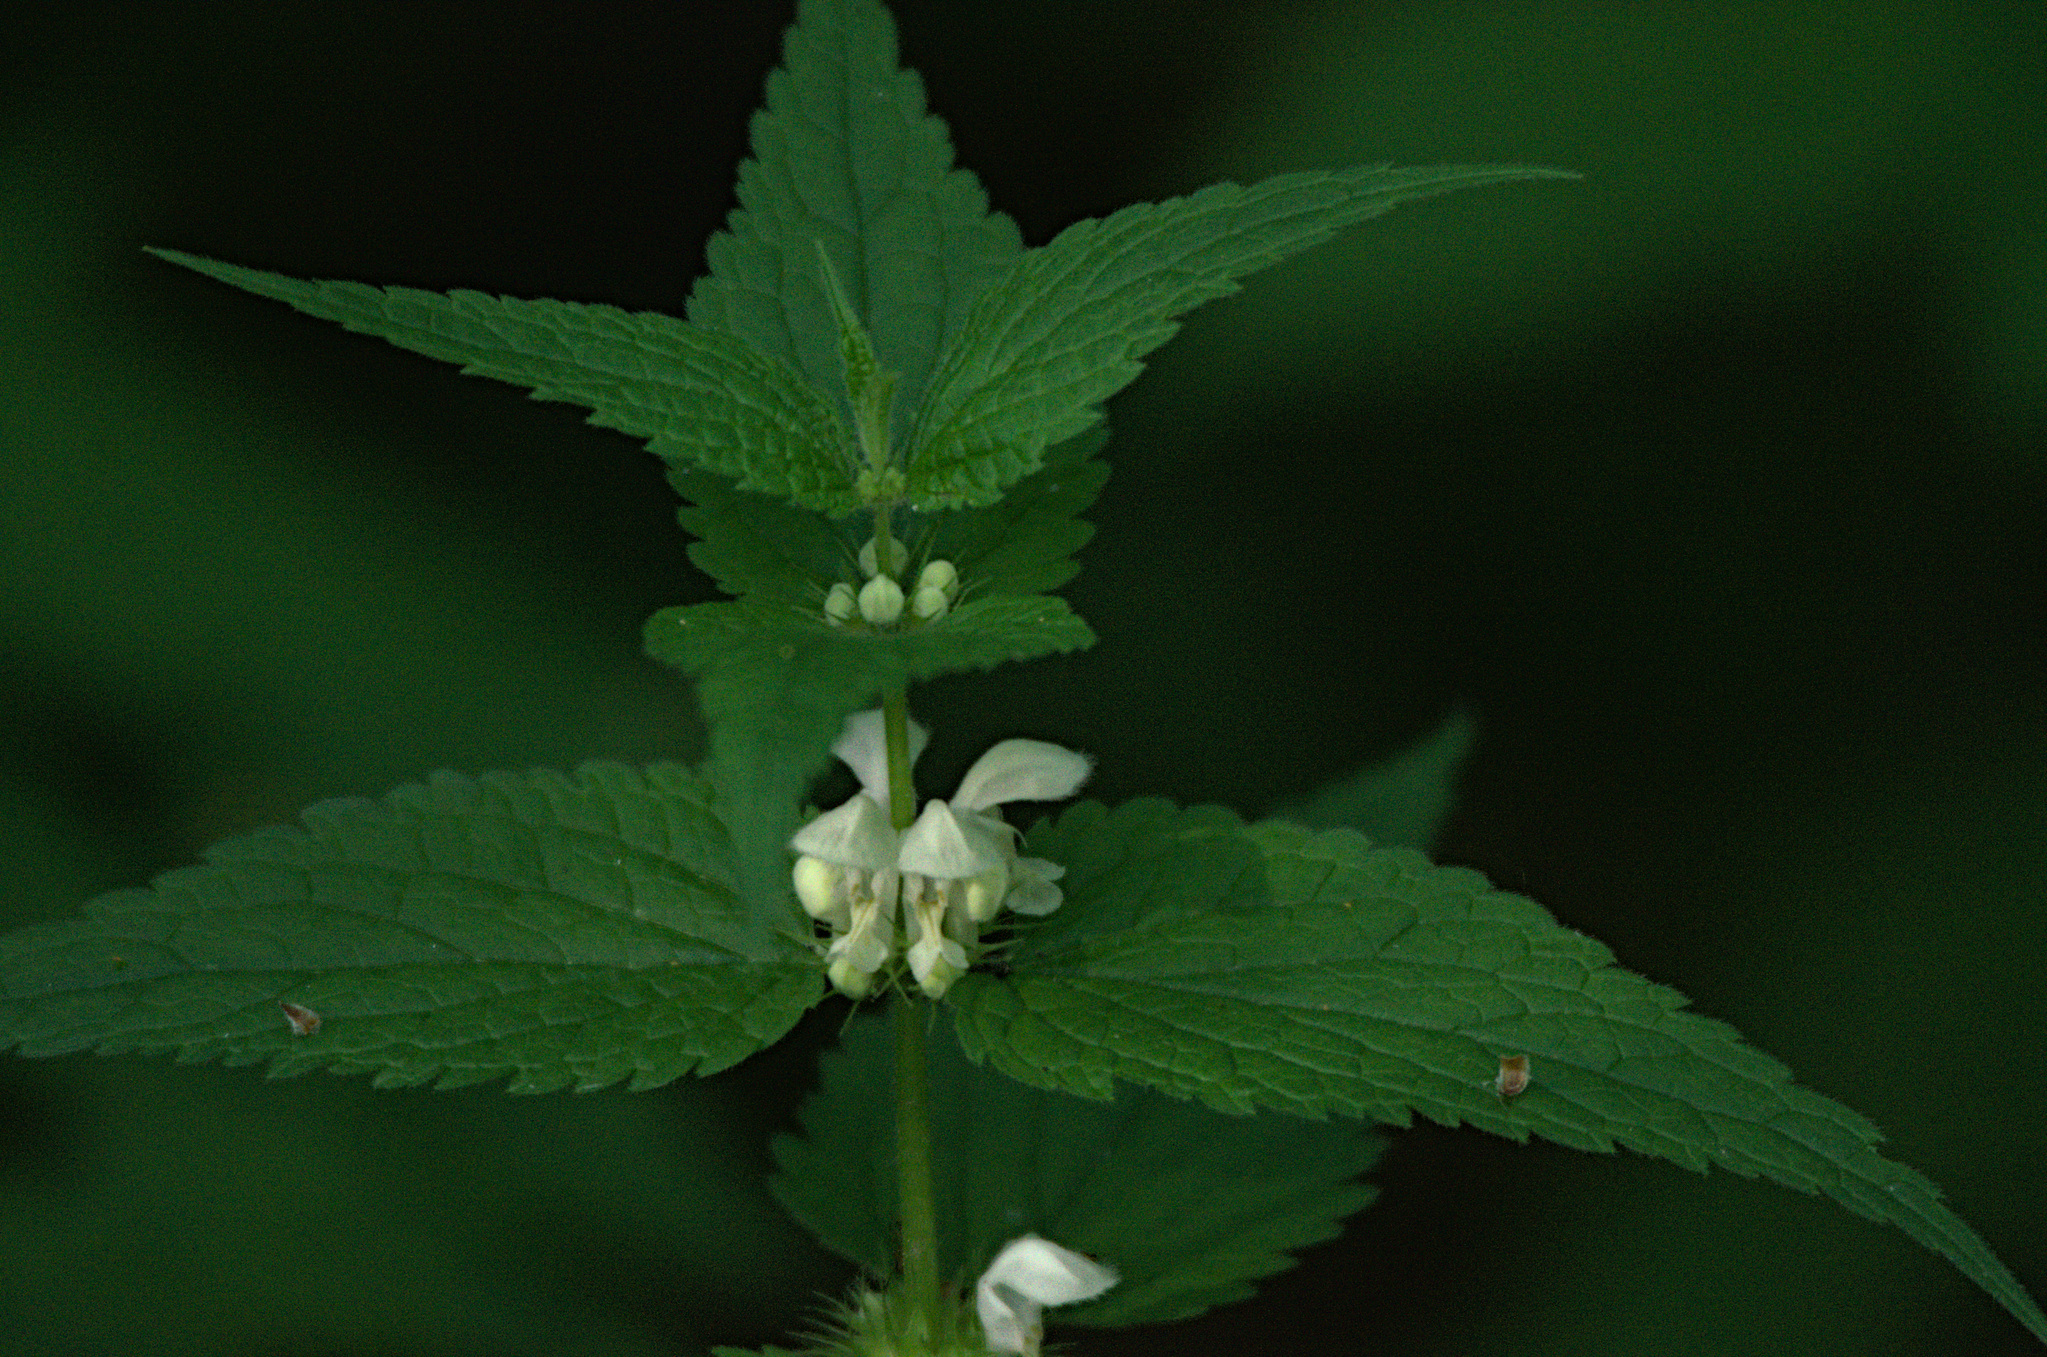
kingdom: Plantae
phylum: Tracheophyta
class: Magnoliopsida
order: Lamiales
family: Lamiaceae
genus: Lamium
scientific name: Lamium album
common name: White dead-nettle
